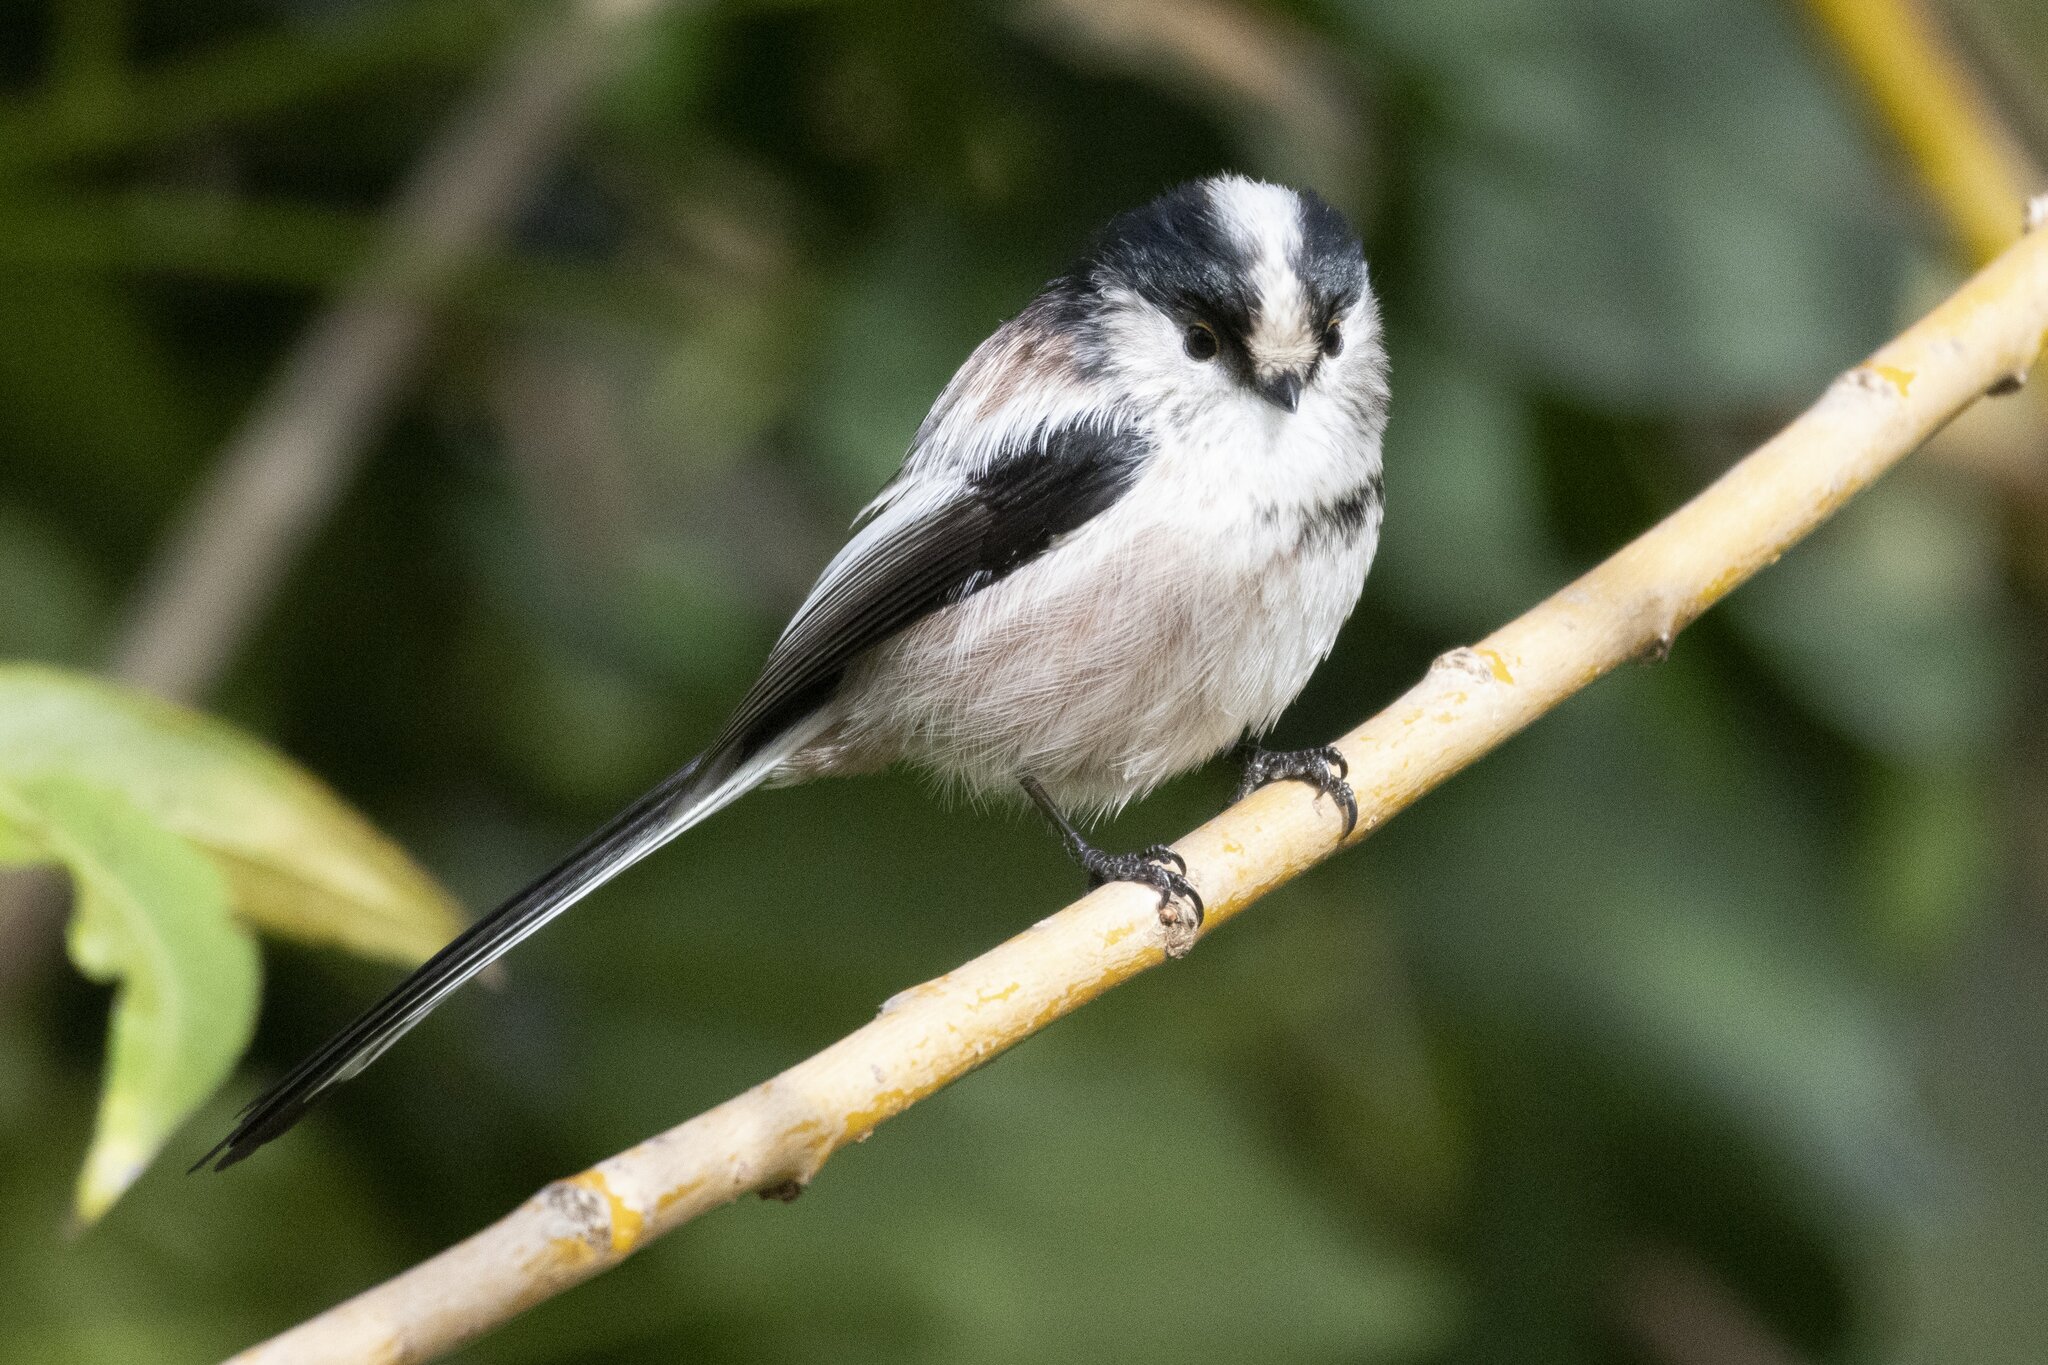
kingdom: Animalia
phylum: Chordata
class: Aves
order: Passeriformes
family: Aegithalidae
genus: Aegithalos
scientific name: Aegithalos caudatus
